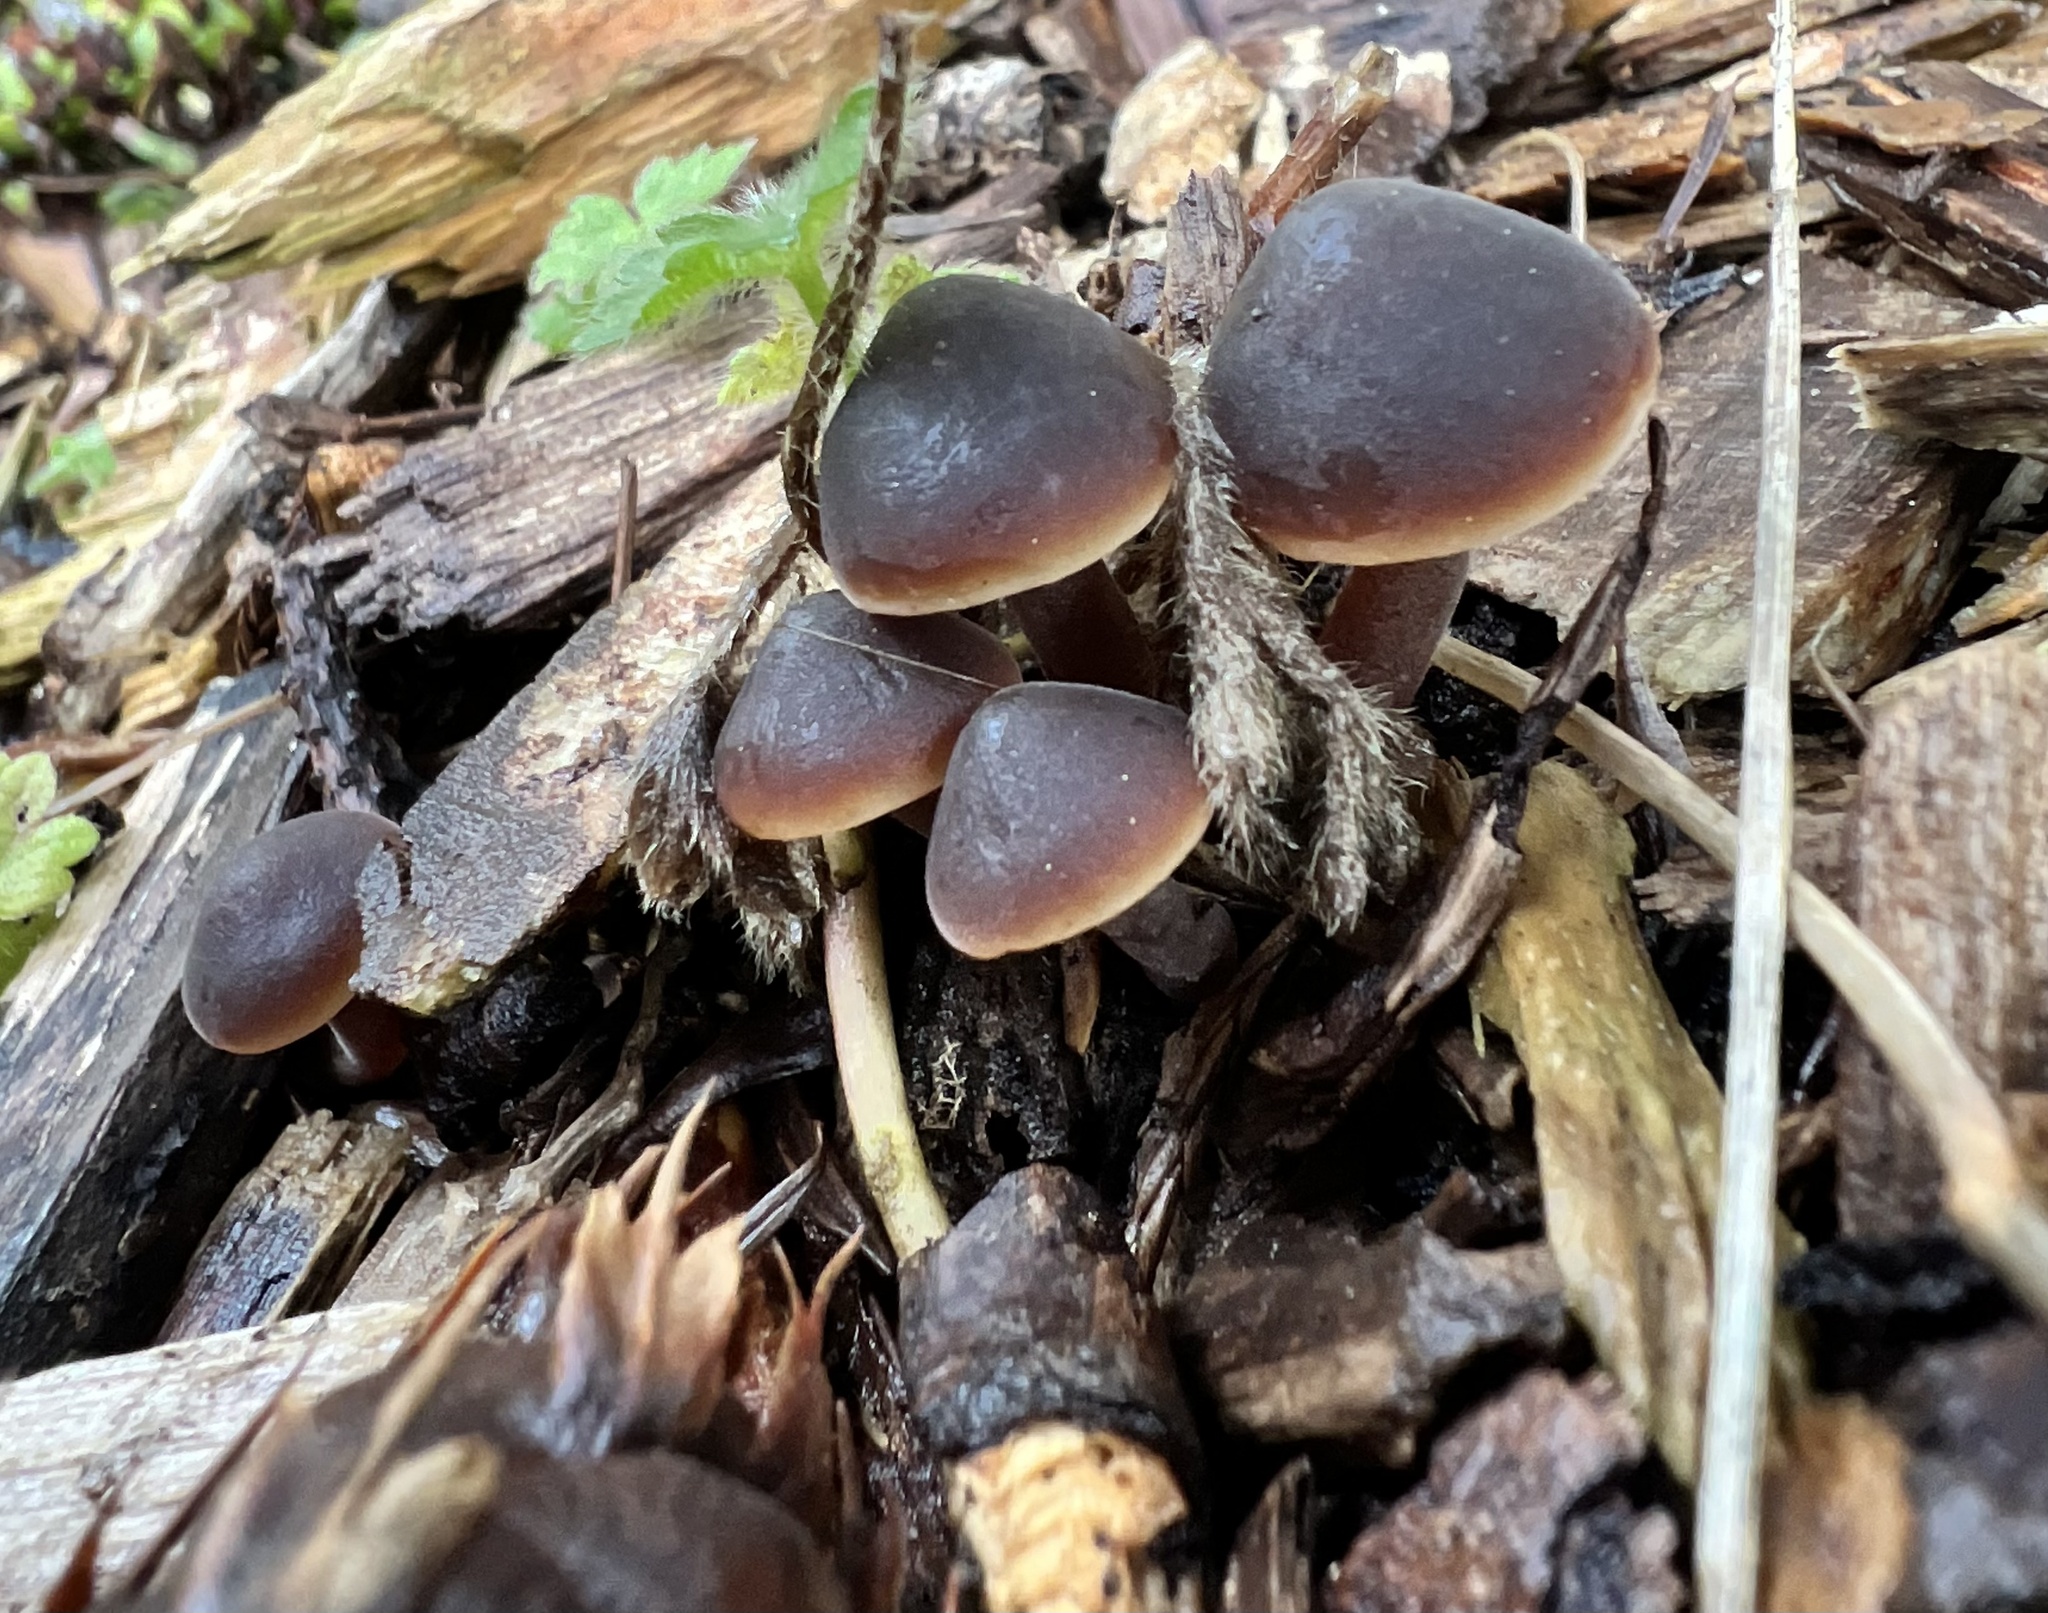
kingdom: Fungi
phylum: Basidiomycota
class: Agaricomycetes
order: Agaricales
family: Macrocystidiaceae
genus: Macrocystidia
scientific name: Macrocystidia cucumis
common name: Cucumber cap
